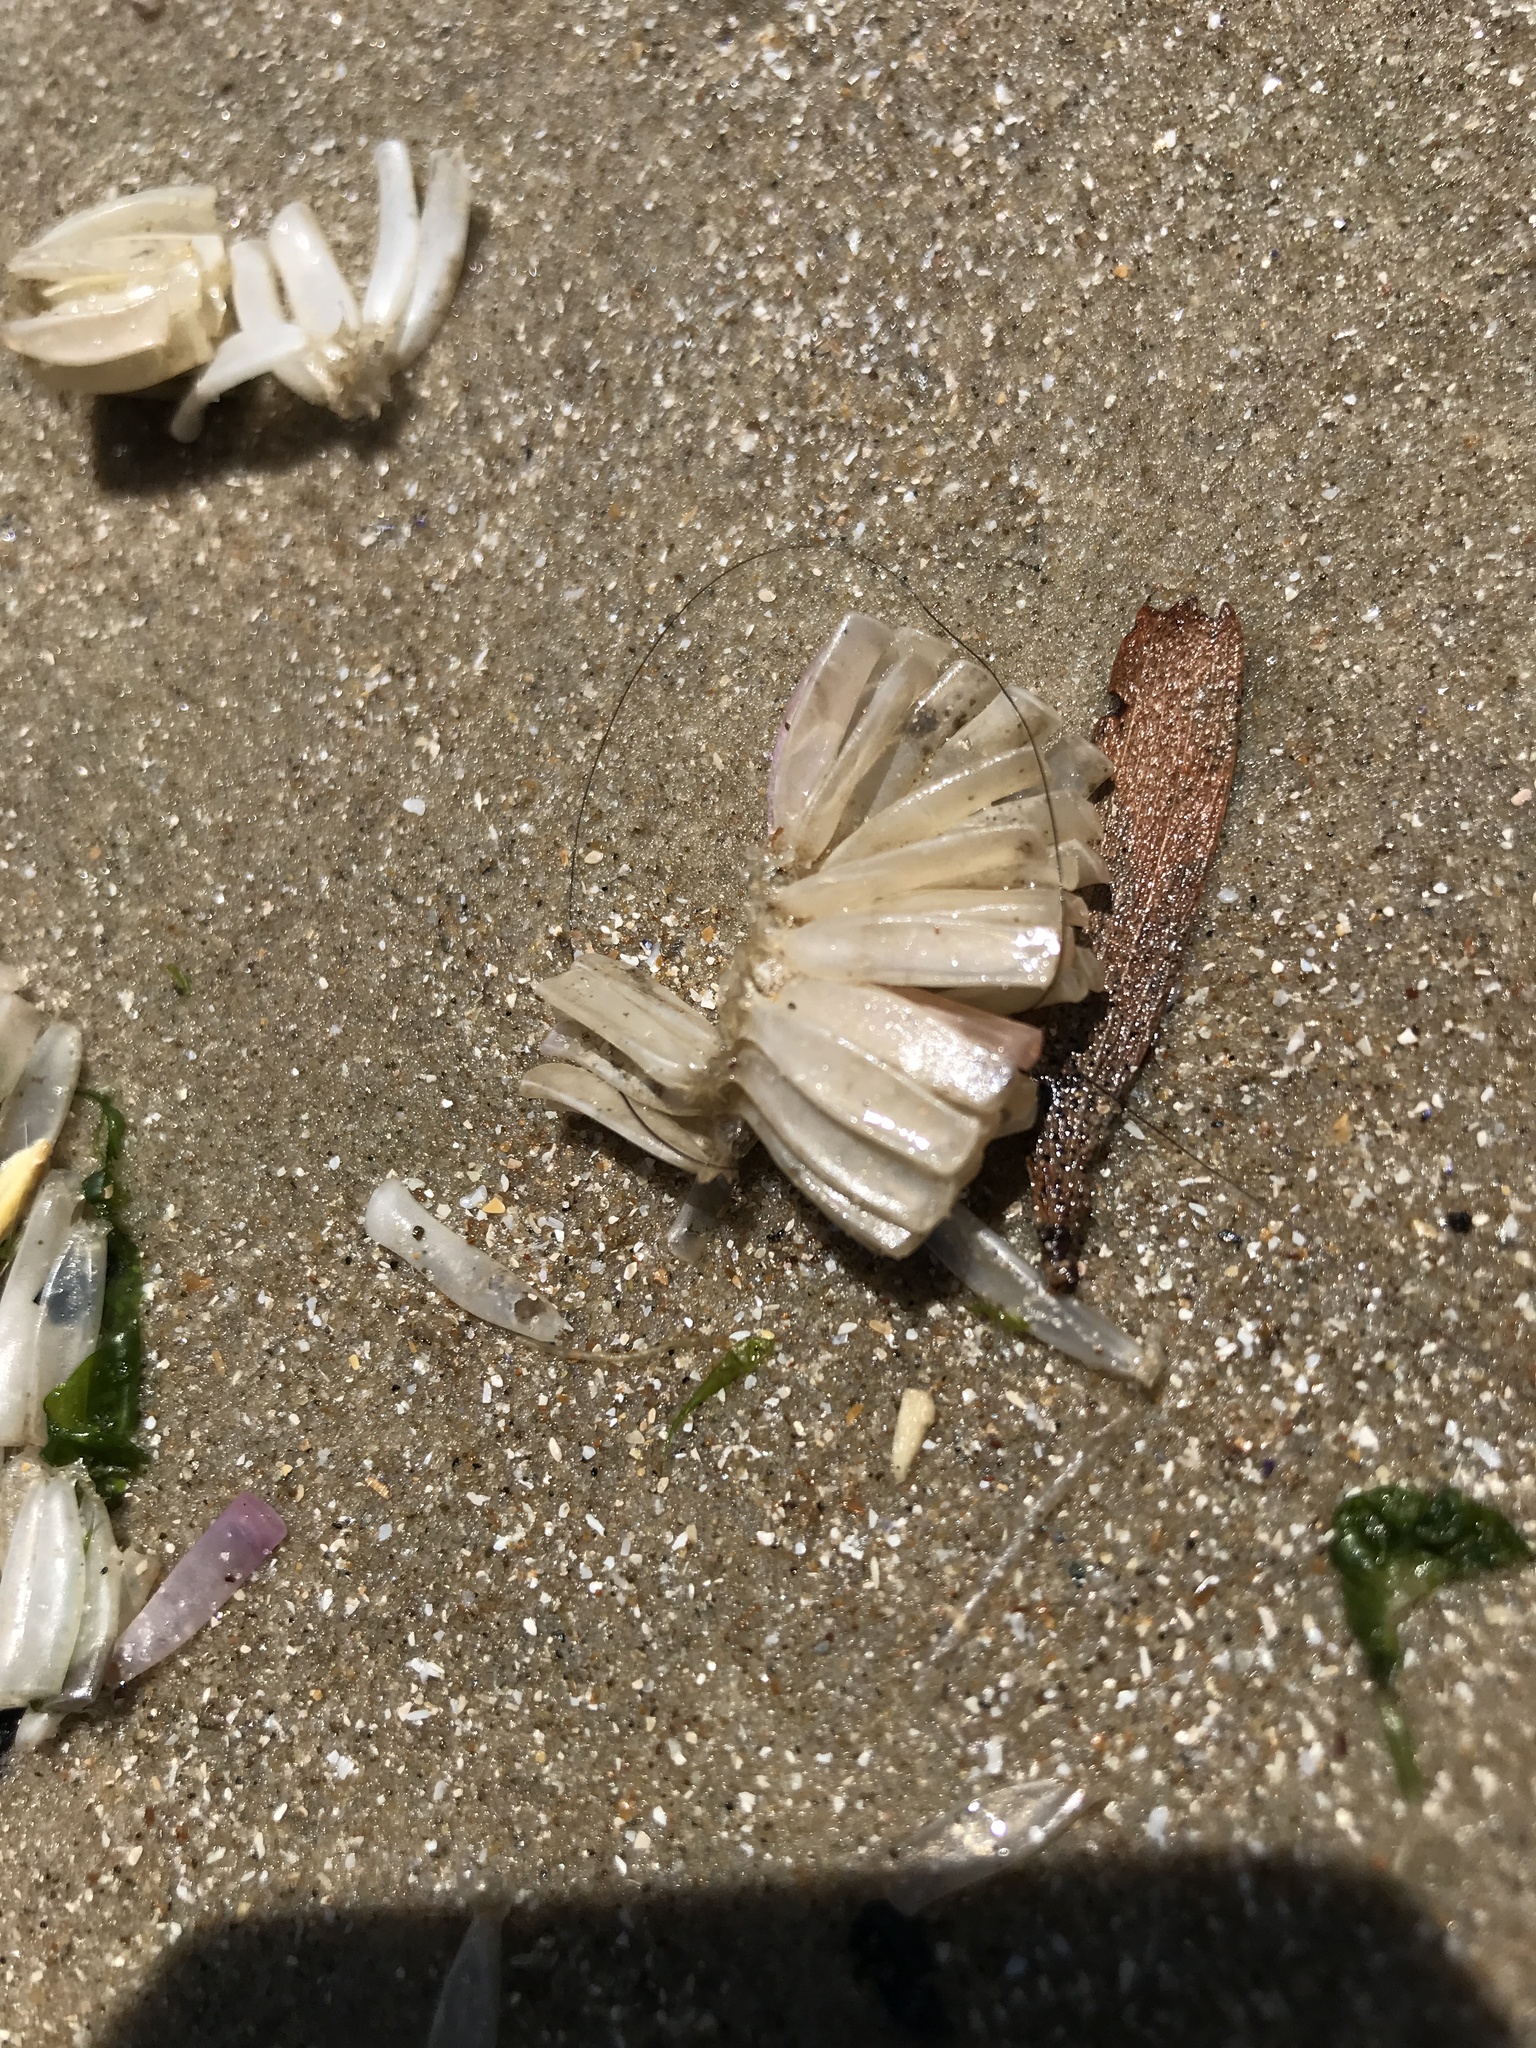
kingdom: Animalia
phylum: Mollusca
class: Gastropoda
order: Neogastropoda
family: Muricidae
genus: Rapana
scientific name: Rapana venosa
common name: Veined rapa whelk
